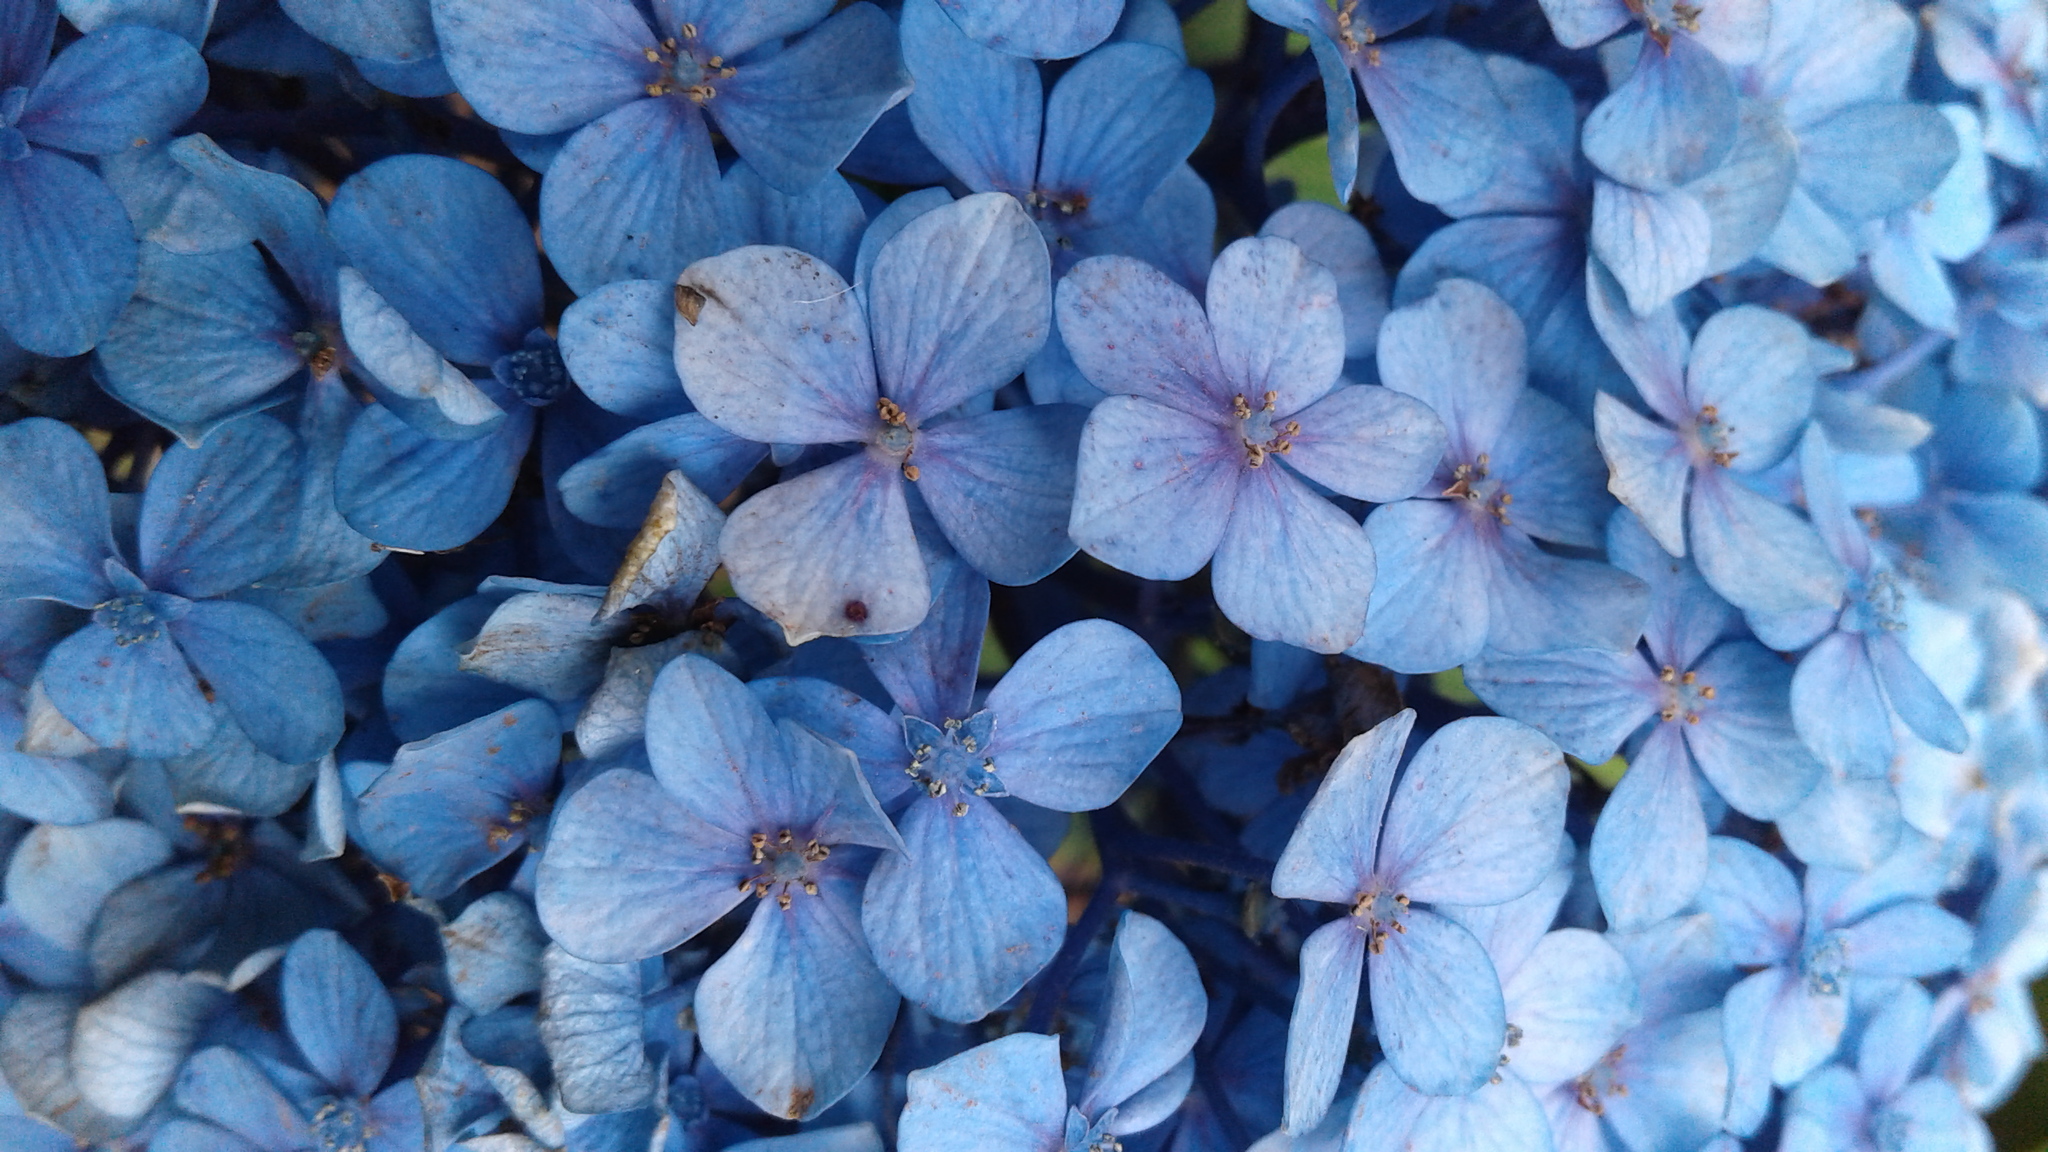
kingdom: Plantae
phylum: Tracheophyta
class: Magnoliopsida
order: Cornales
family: Hydrangeaceae
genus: Hydrangea
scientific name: Hydrangea macrophylla
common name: Hydrangea
